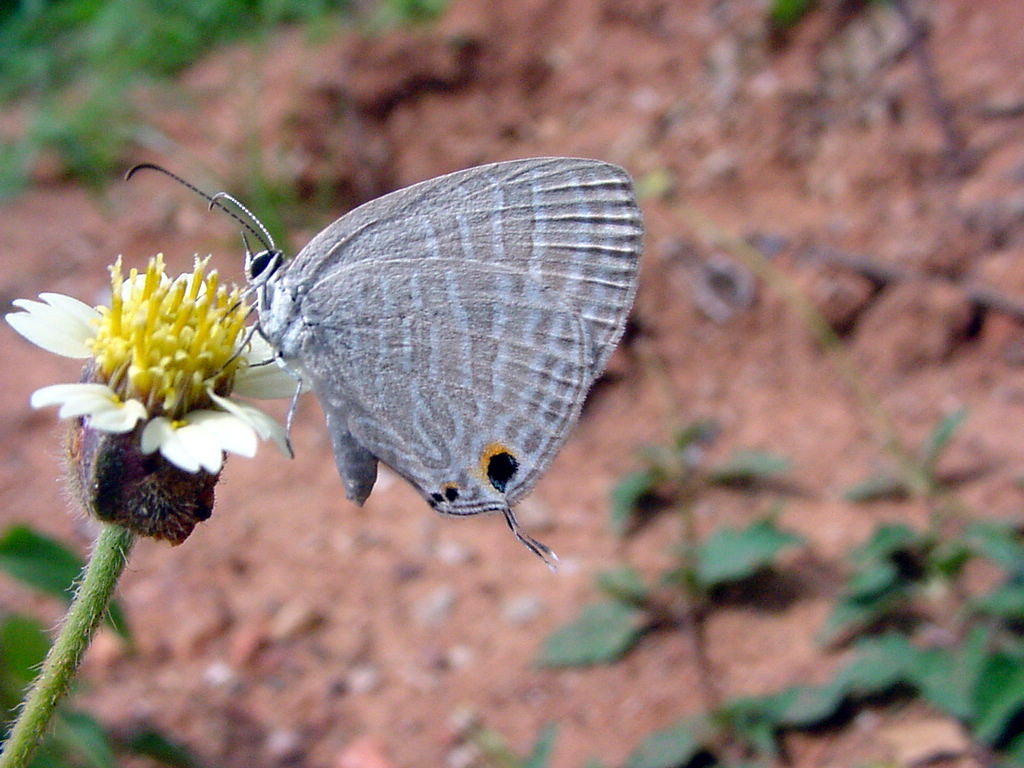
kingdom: Animalia
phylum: Arthropoda
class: Insecta
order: Lepidoptera
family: Lycaenidae
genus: Jamides
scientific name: Jamides celeno
